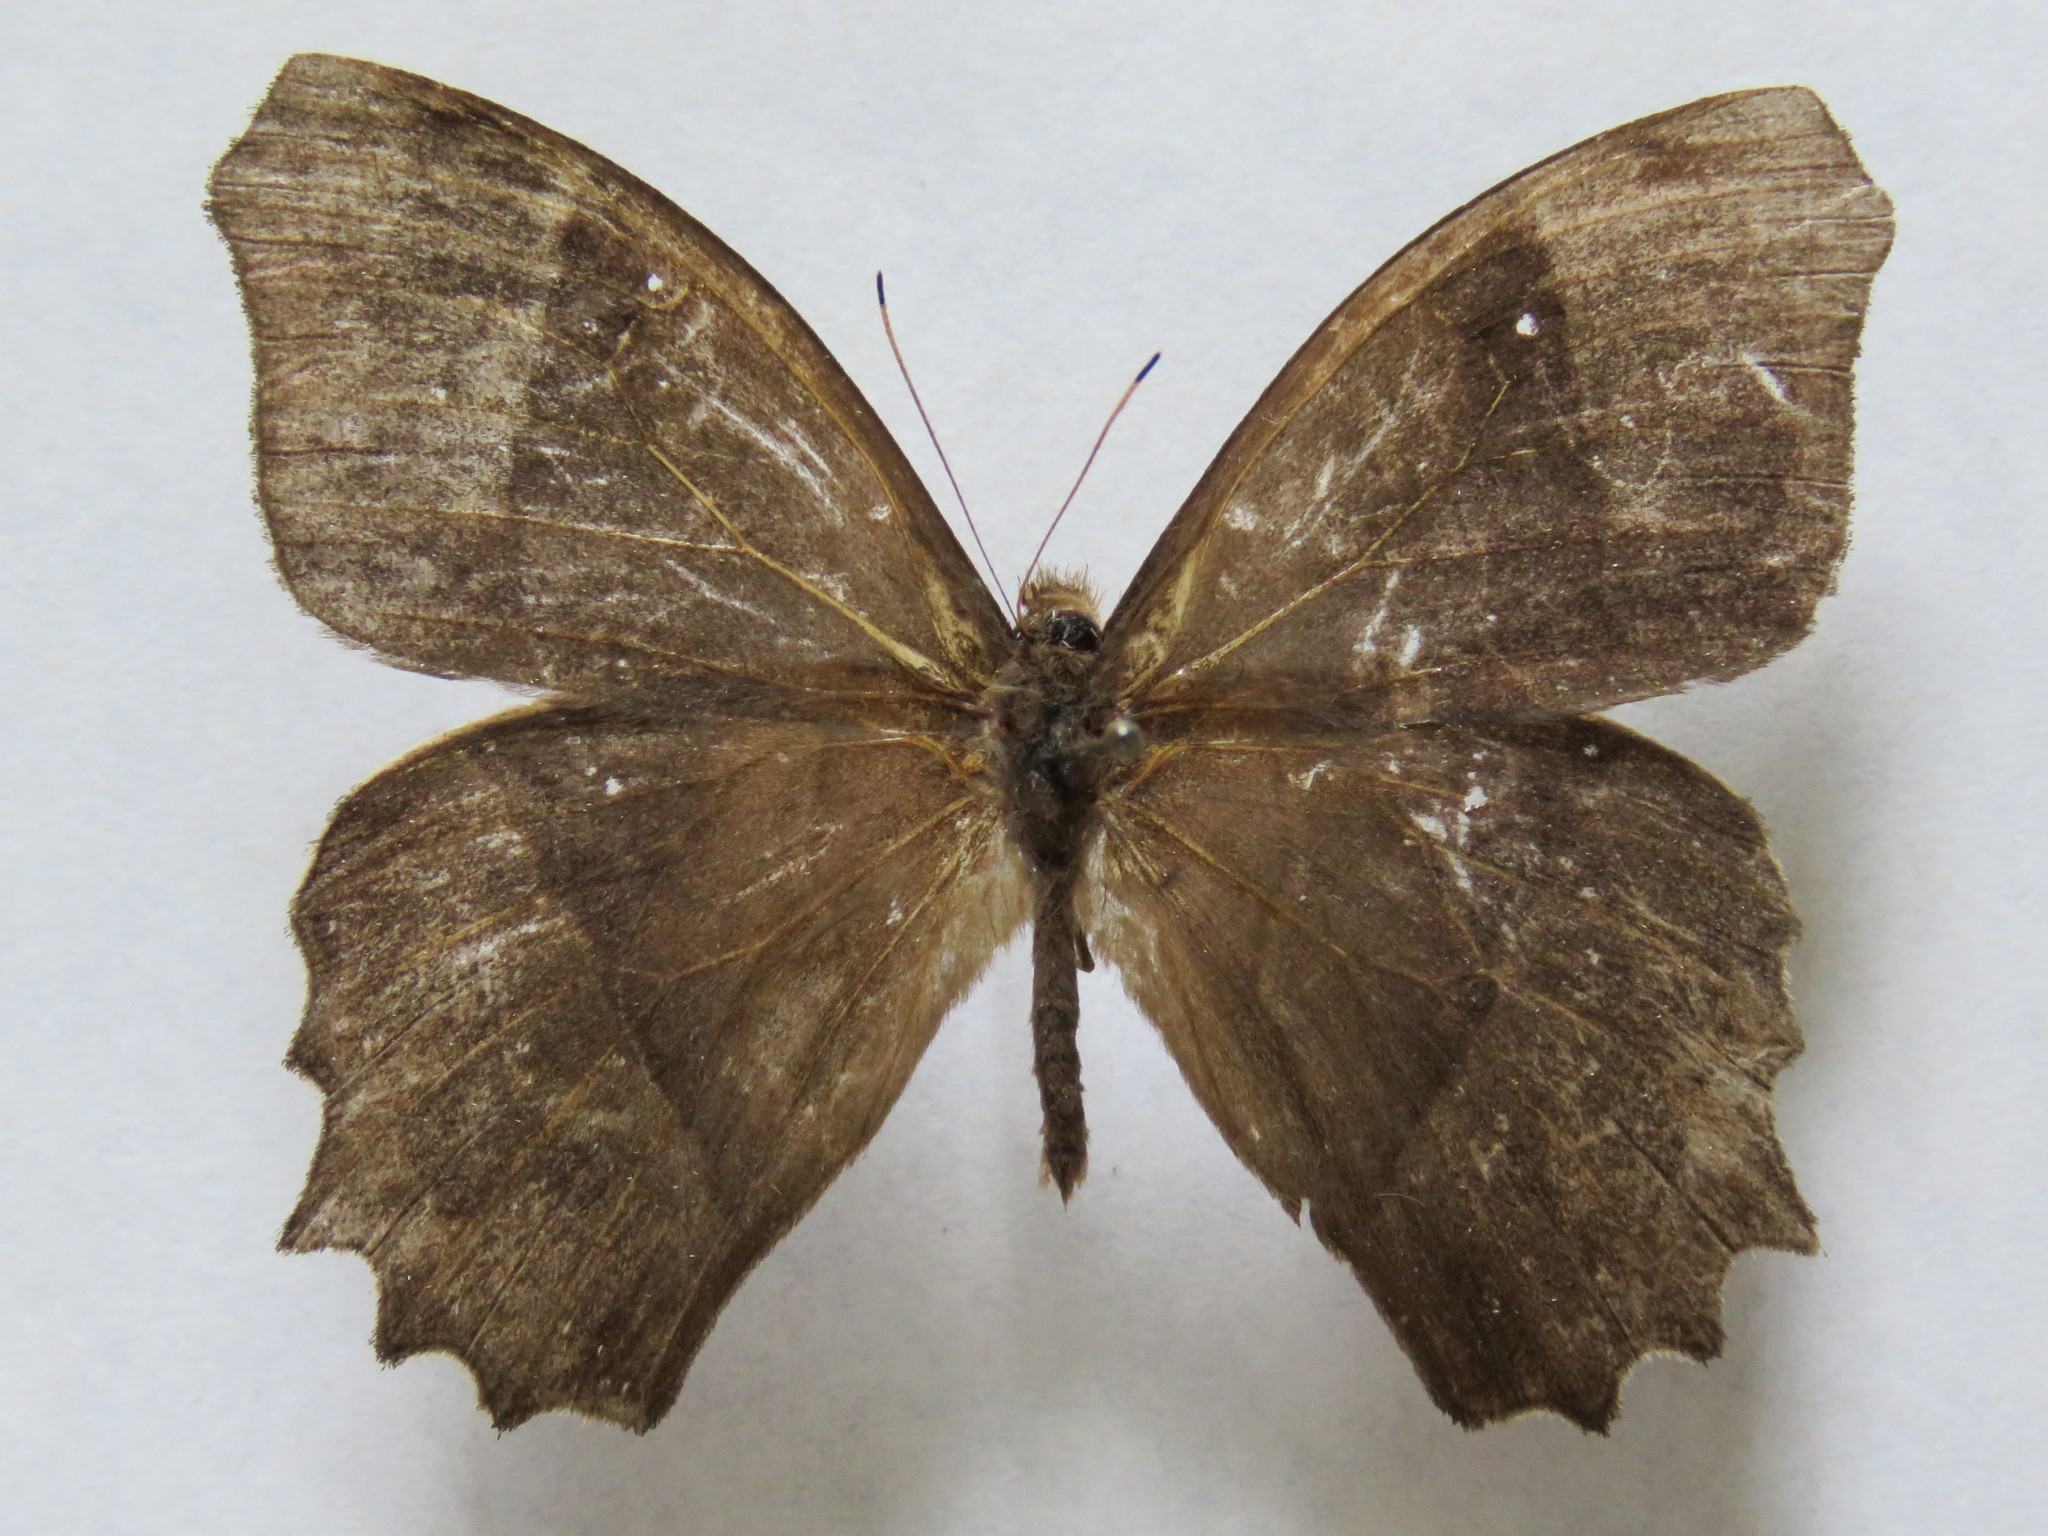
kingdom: Animalia
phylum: Arthropoda
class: Insecta
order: Lepidoptera
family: Nymphalidae
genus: Taygetis
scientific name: Taygetis andromeda
